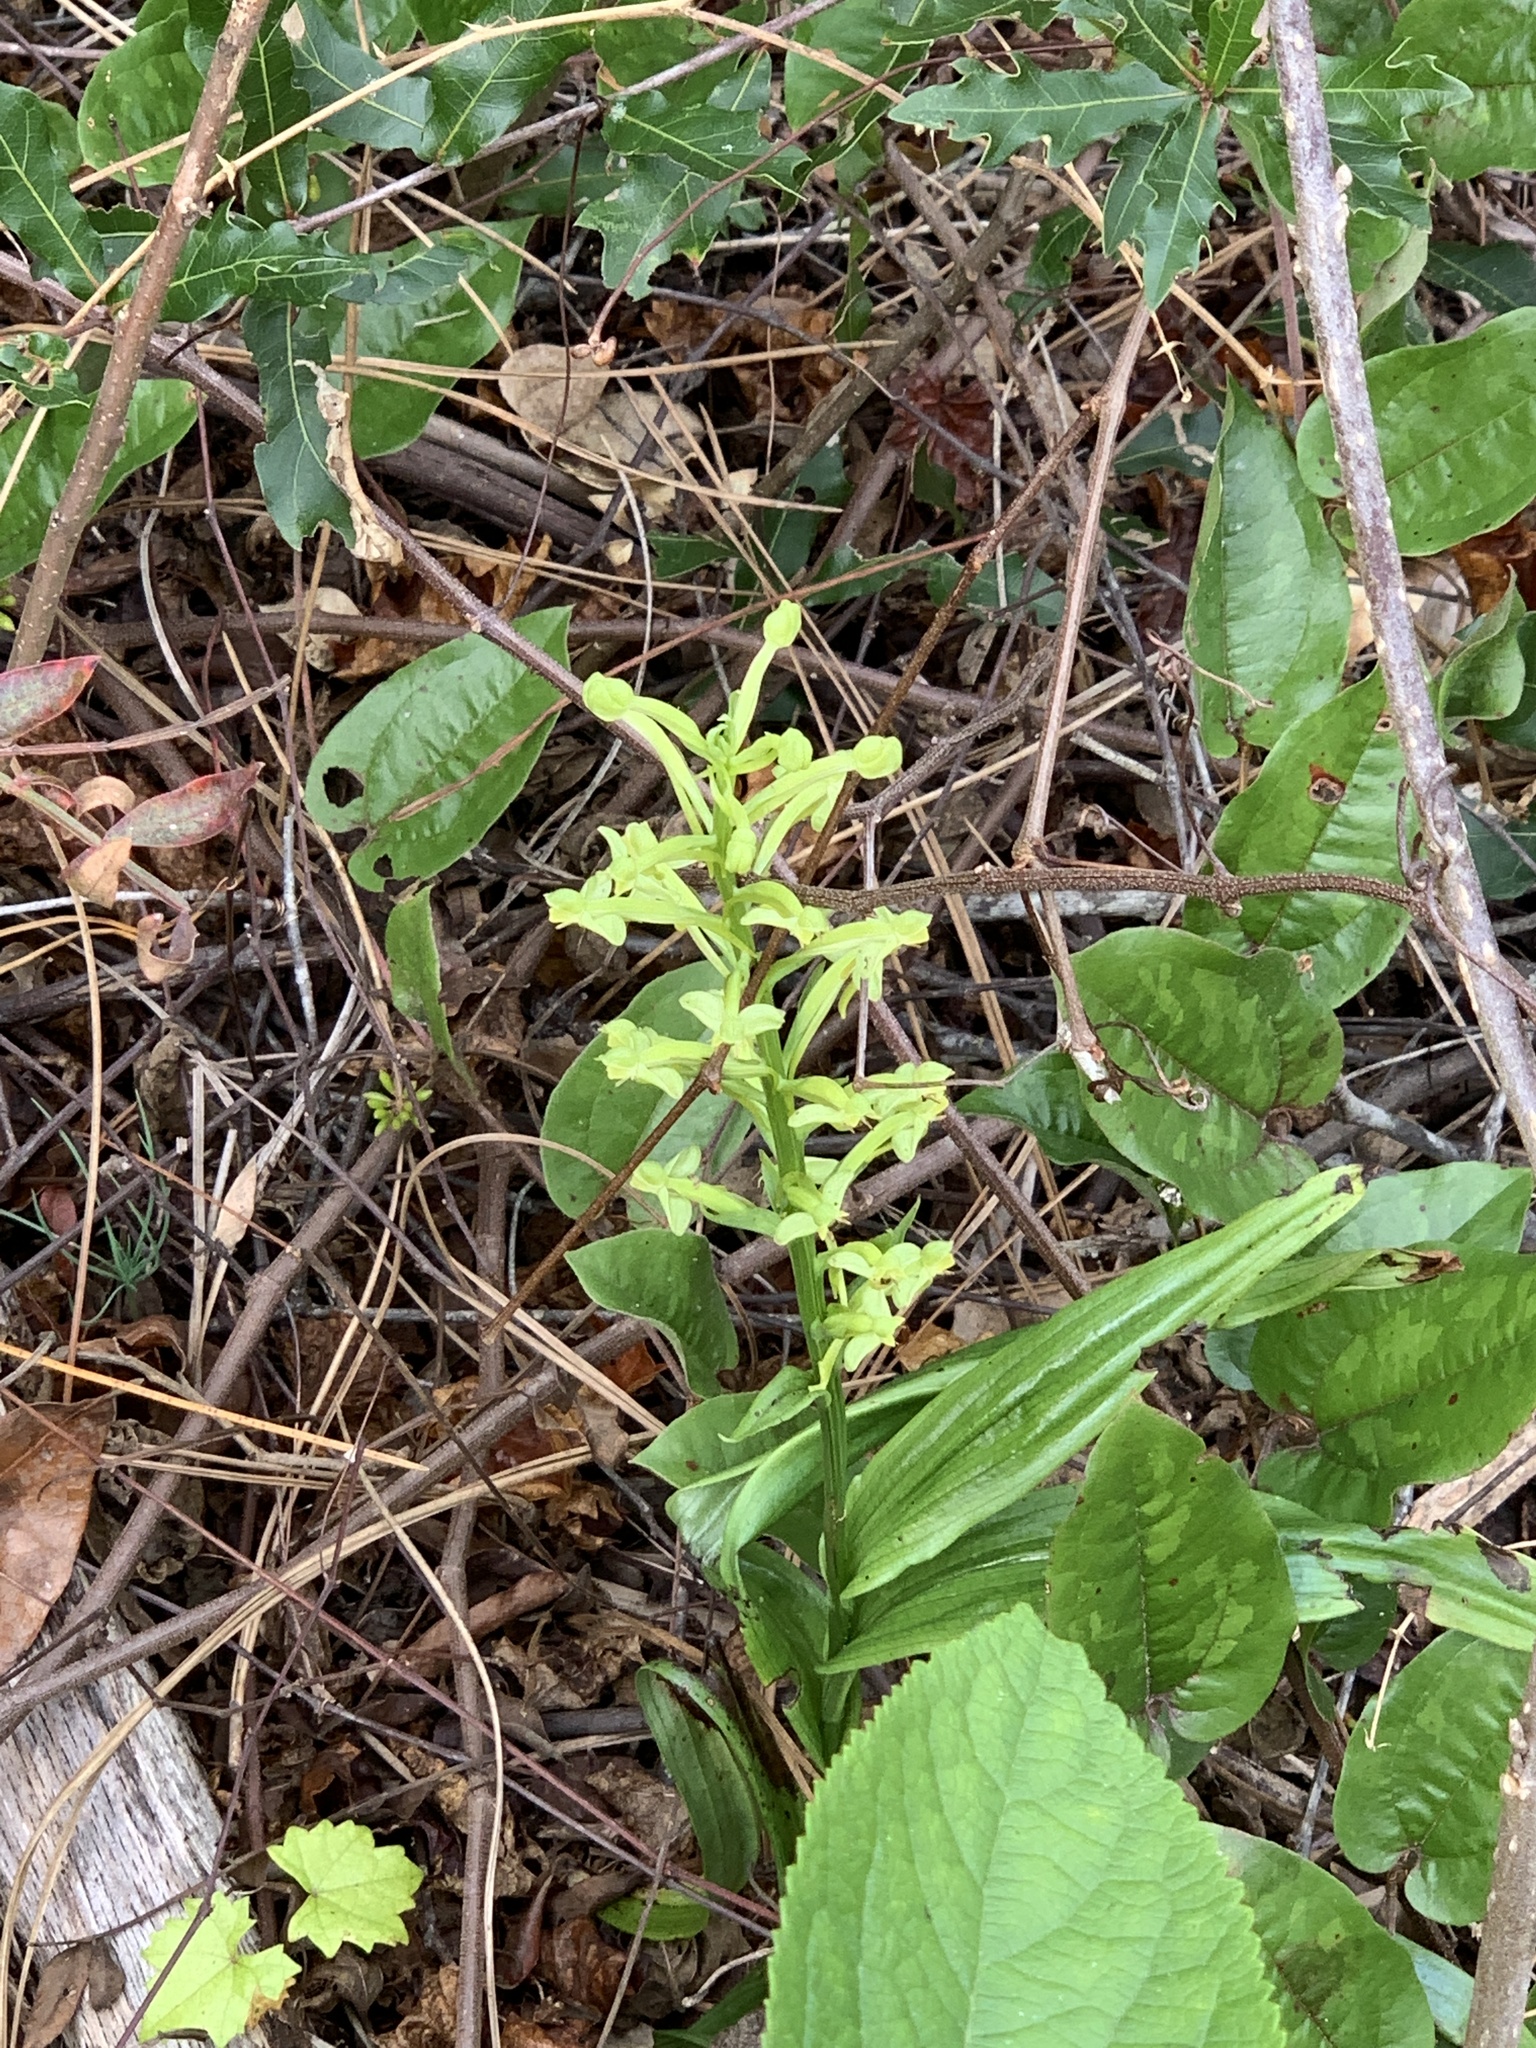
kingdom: Plantae
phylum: Tracheophyta
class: Liliopsida
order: Asparagales
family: Orchidaceae
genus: Habenaria
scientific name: Habenaria floribunda
